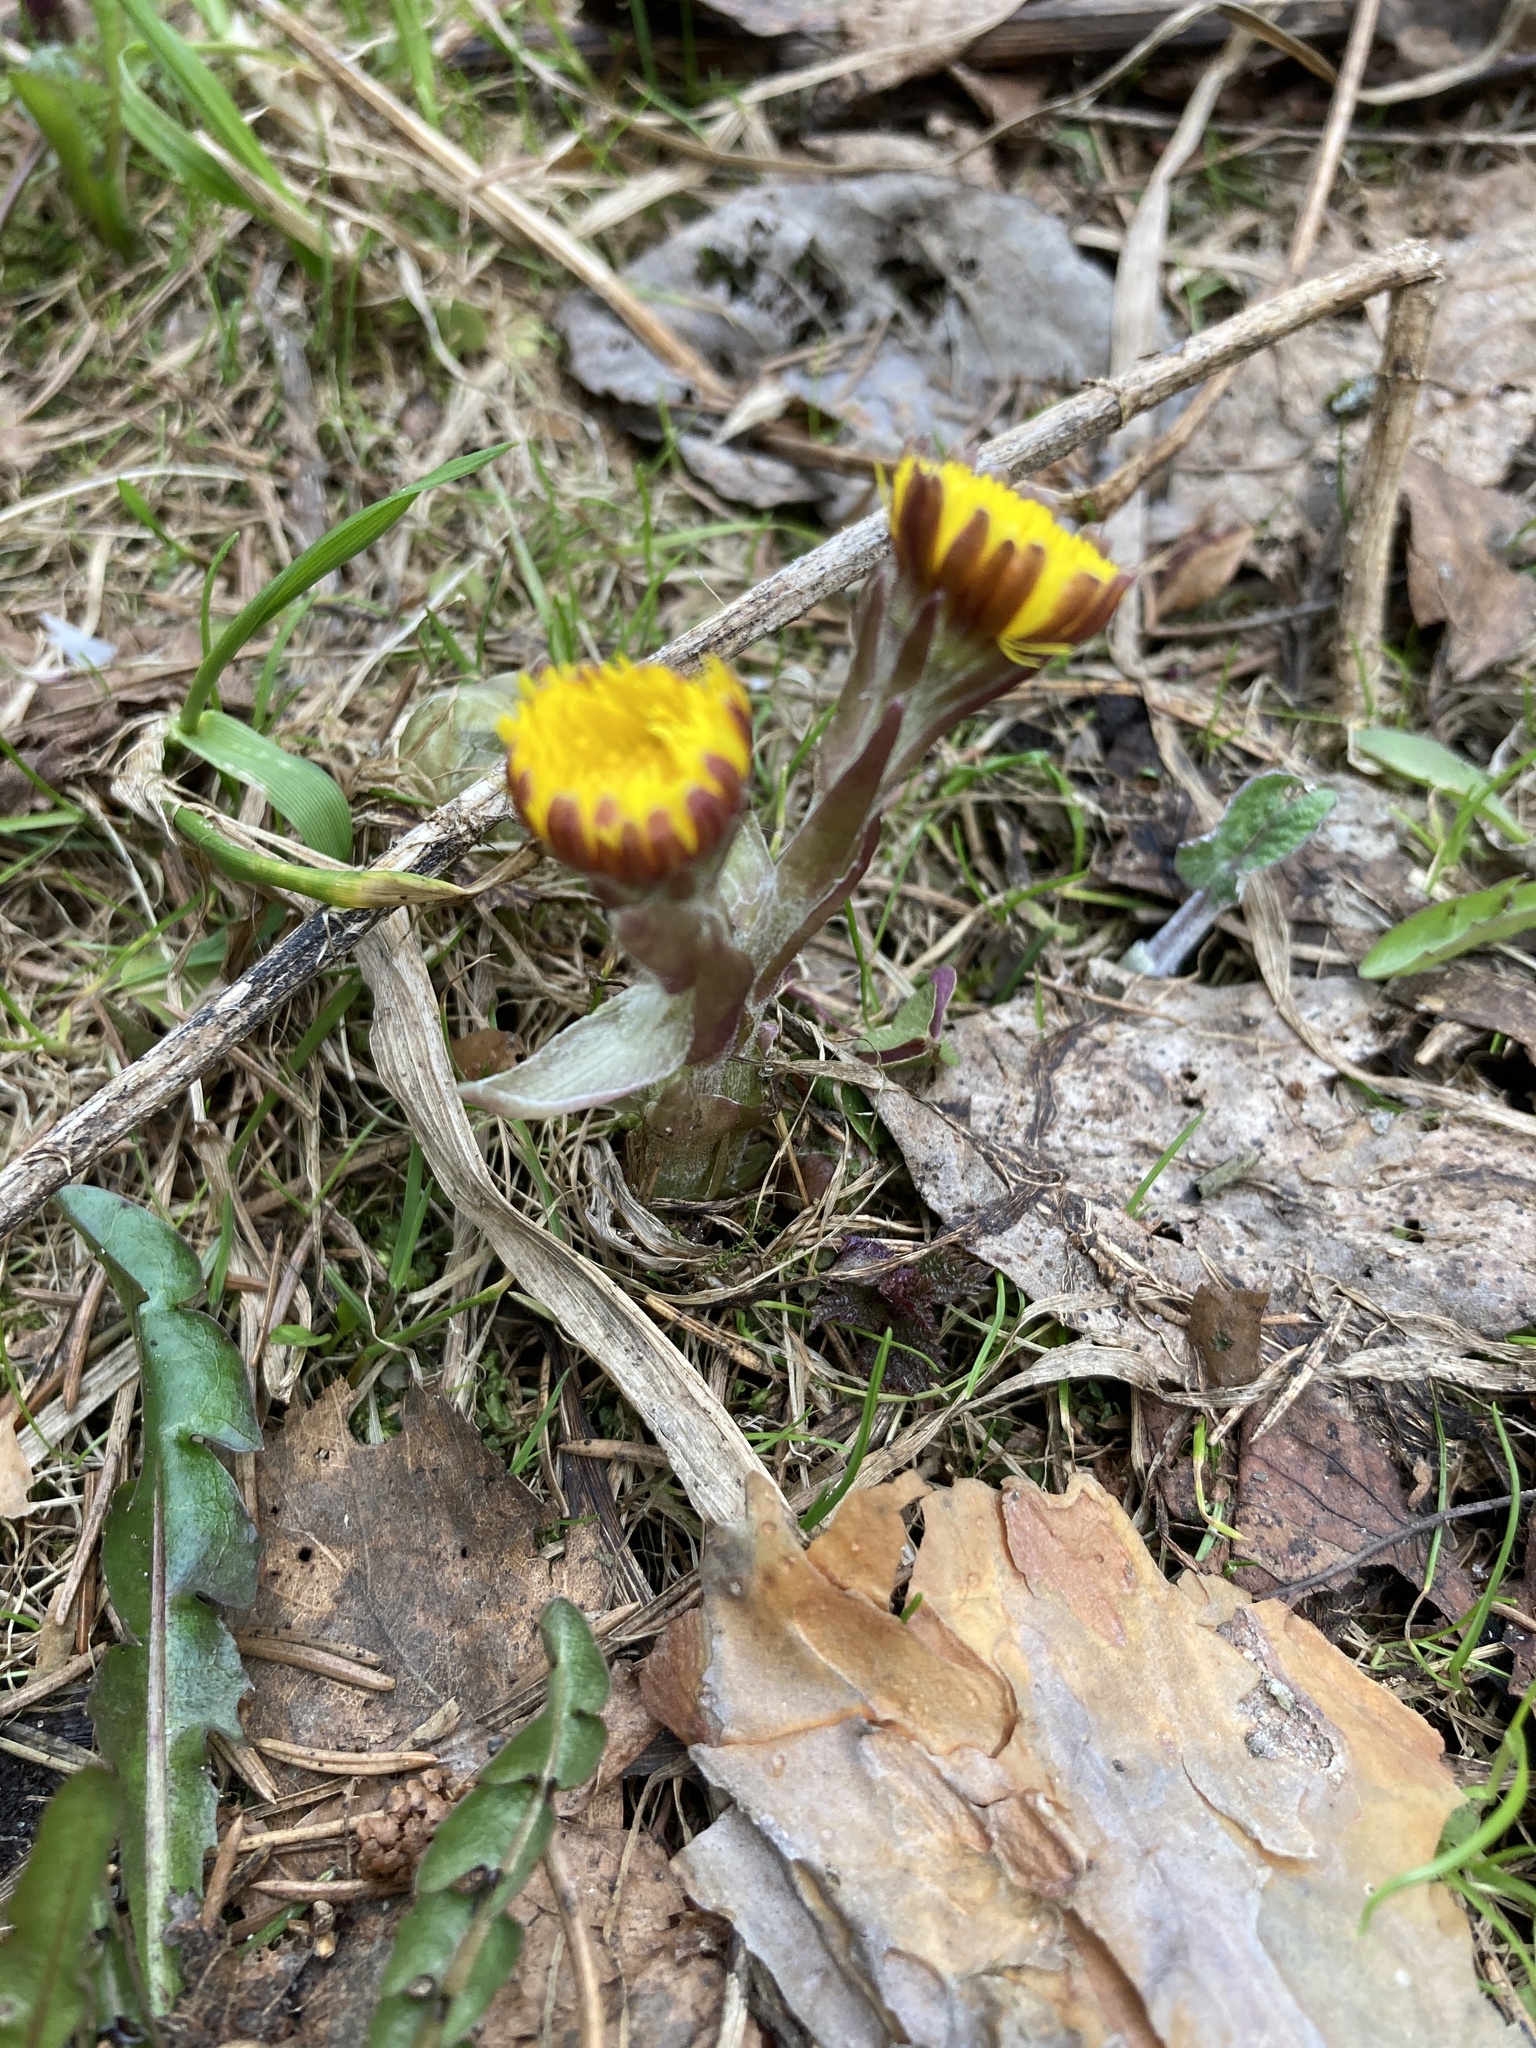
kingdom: Plantae
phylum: Tracheophyta
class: Magnoliopsida
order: Asterales
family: Asteraceae
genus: Tussilago
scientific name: Tussilago farfara
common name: Coltsfoot
